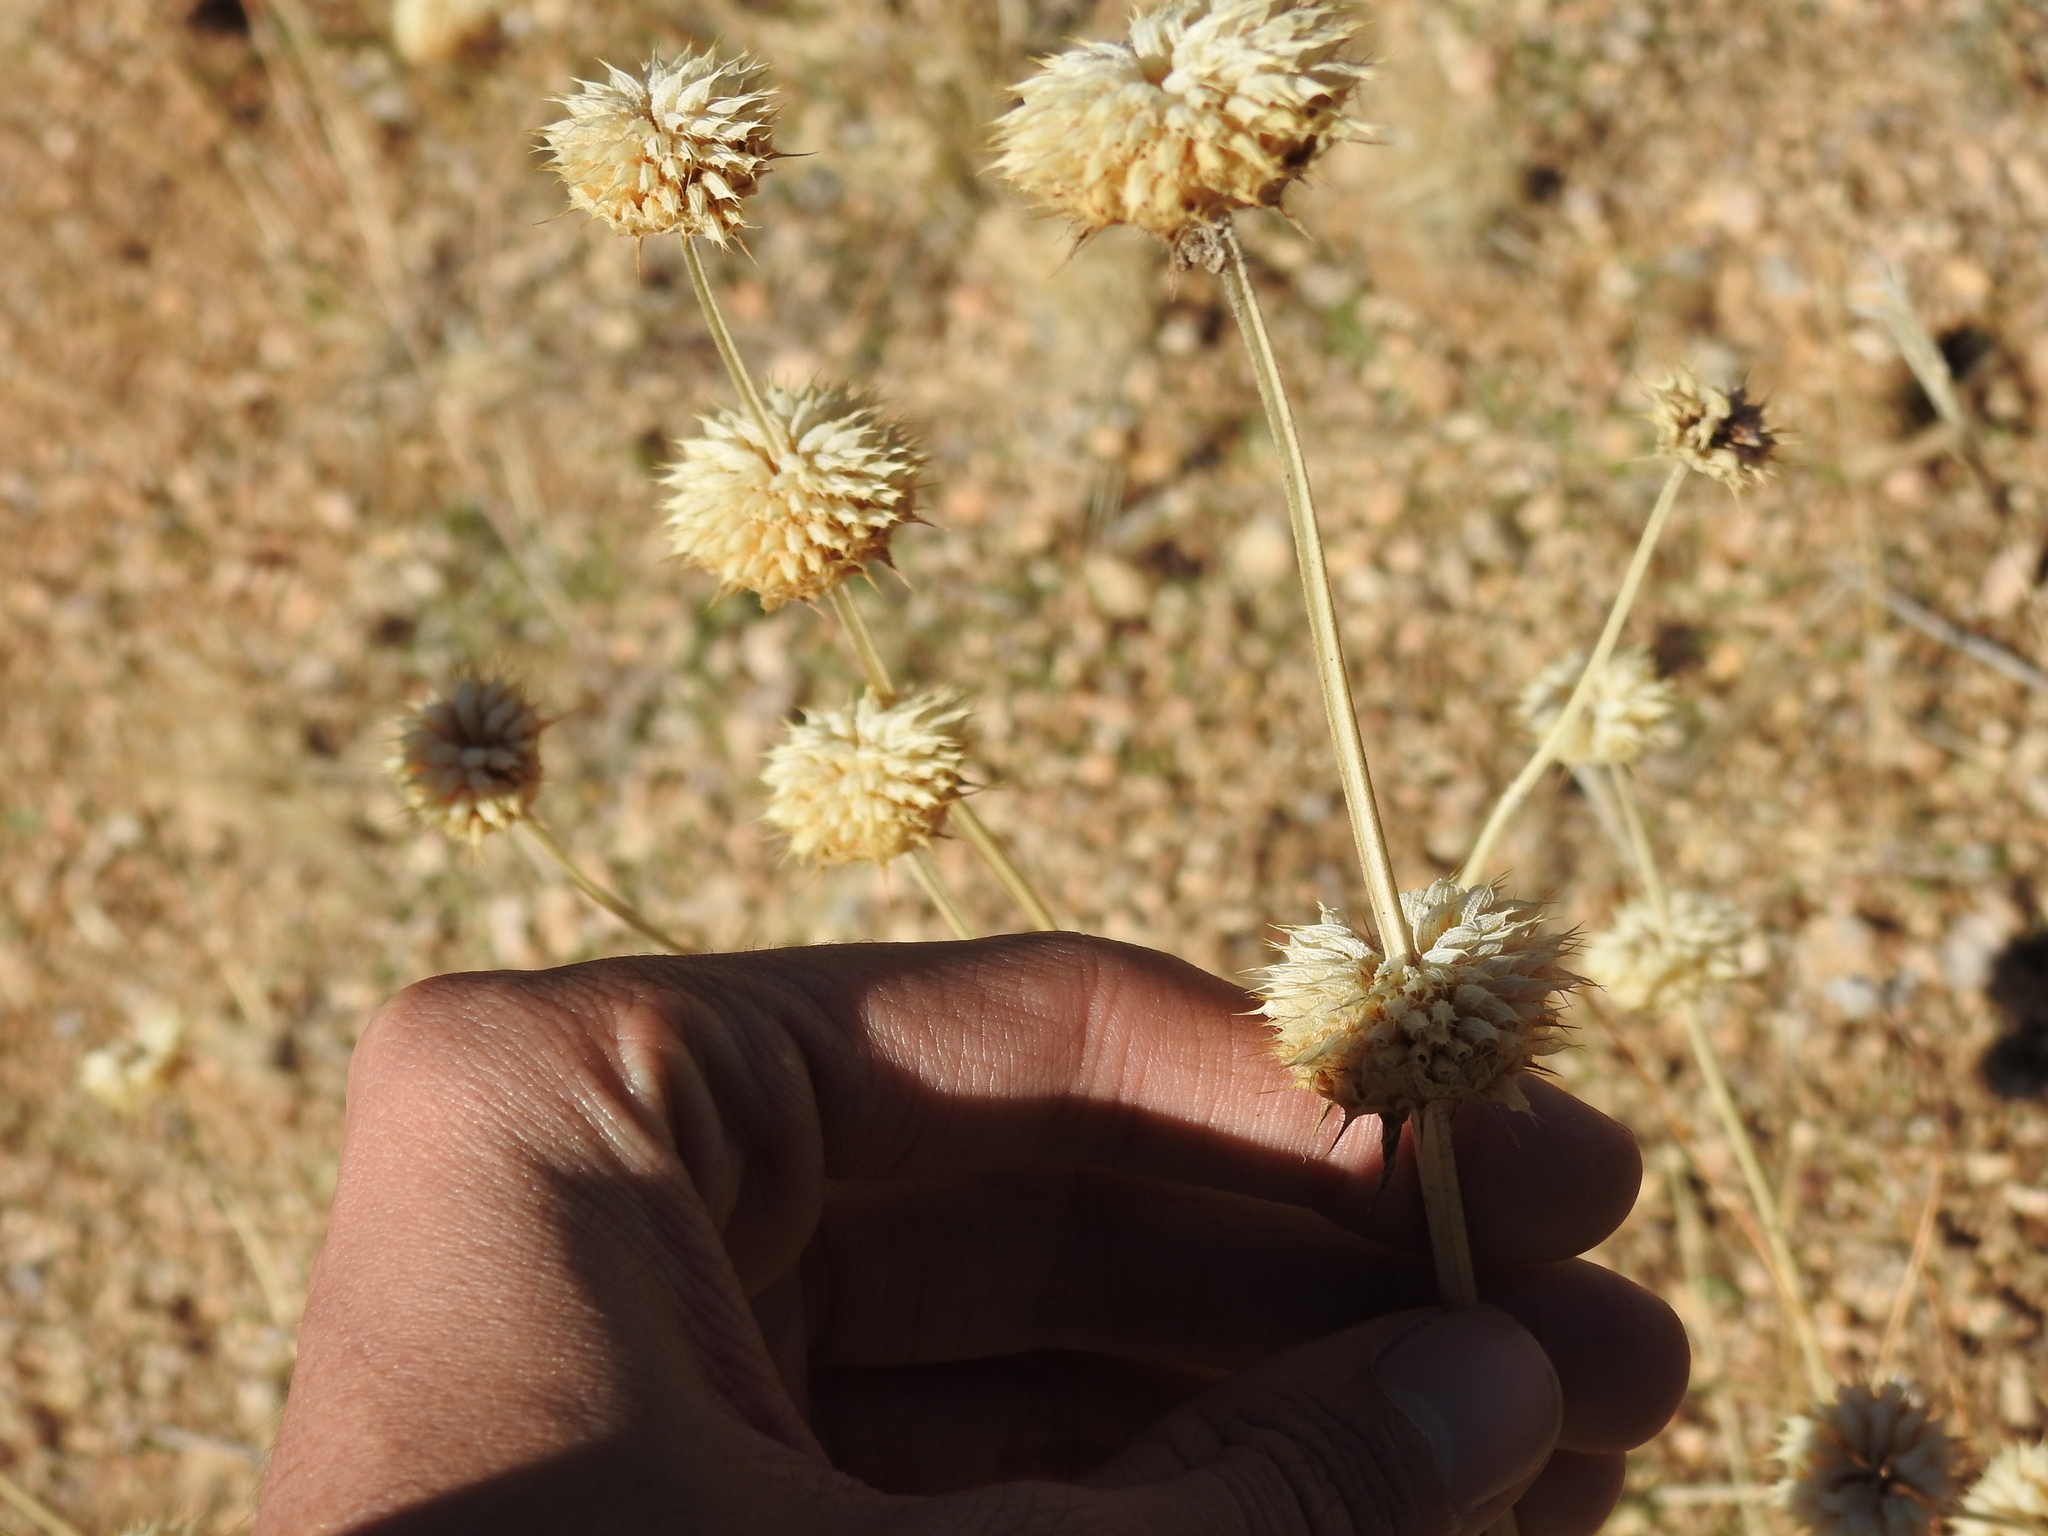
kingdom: Plantae
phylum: Tracheophyta
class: Magnoliopsida
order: Lamiales
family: Lamiaceae
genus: Salvia
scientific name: Salvia columbariae
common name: Chia
